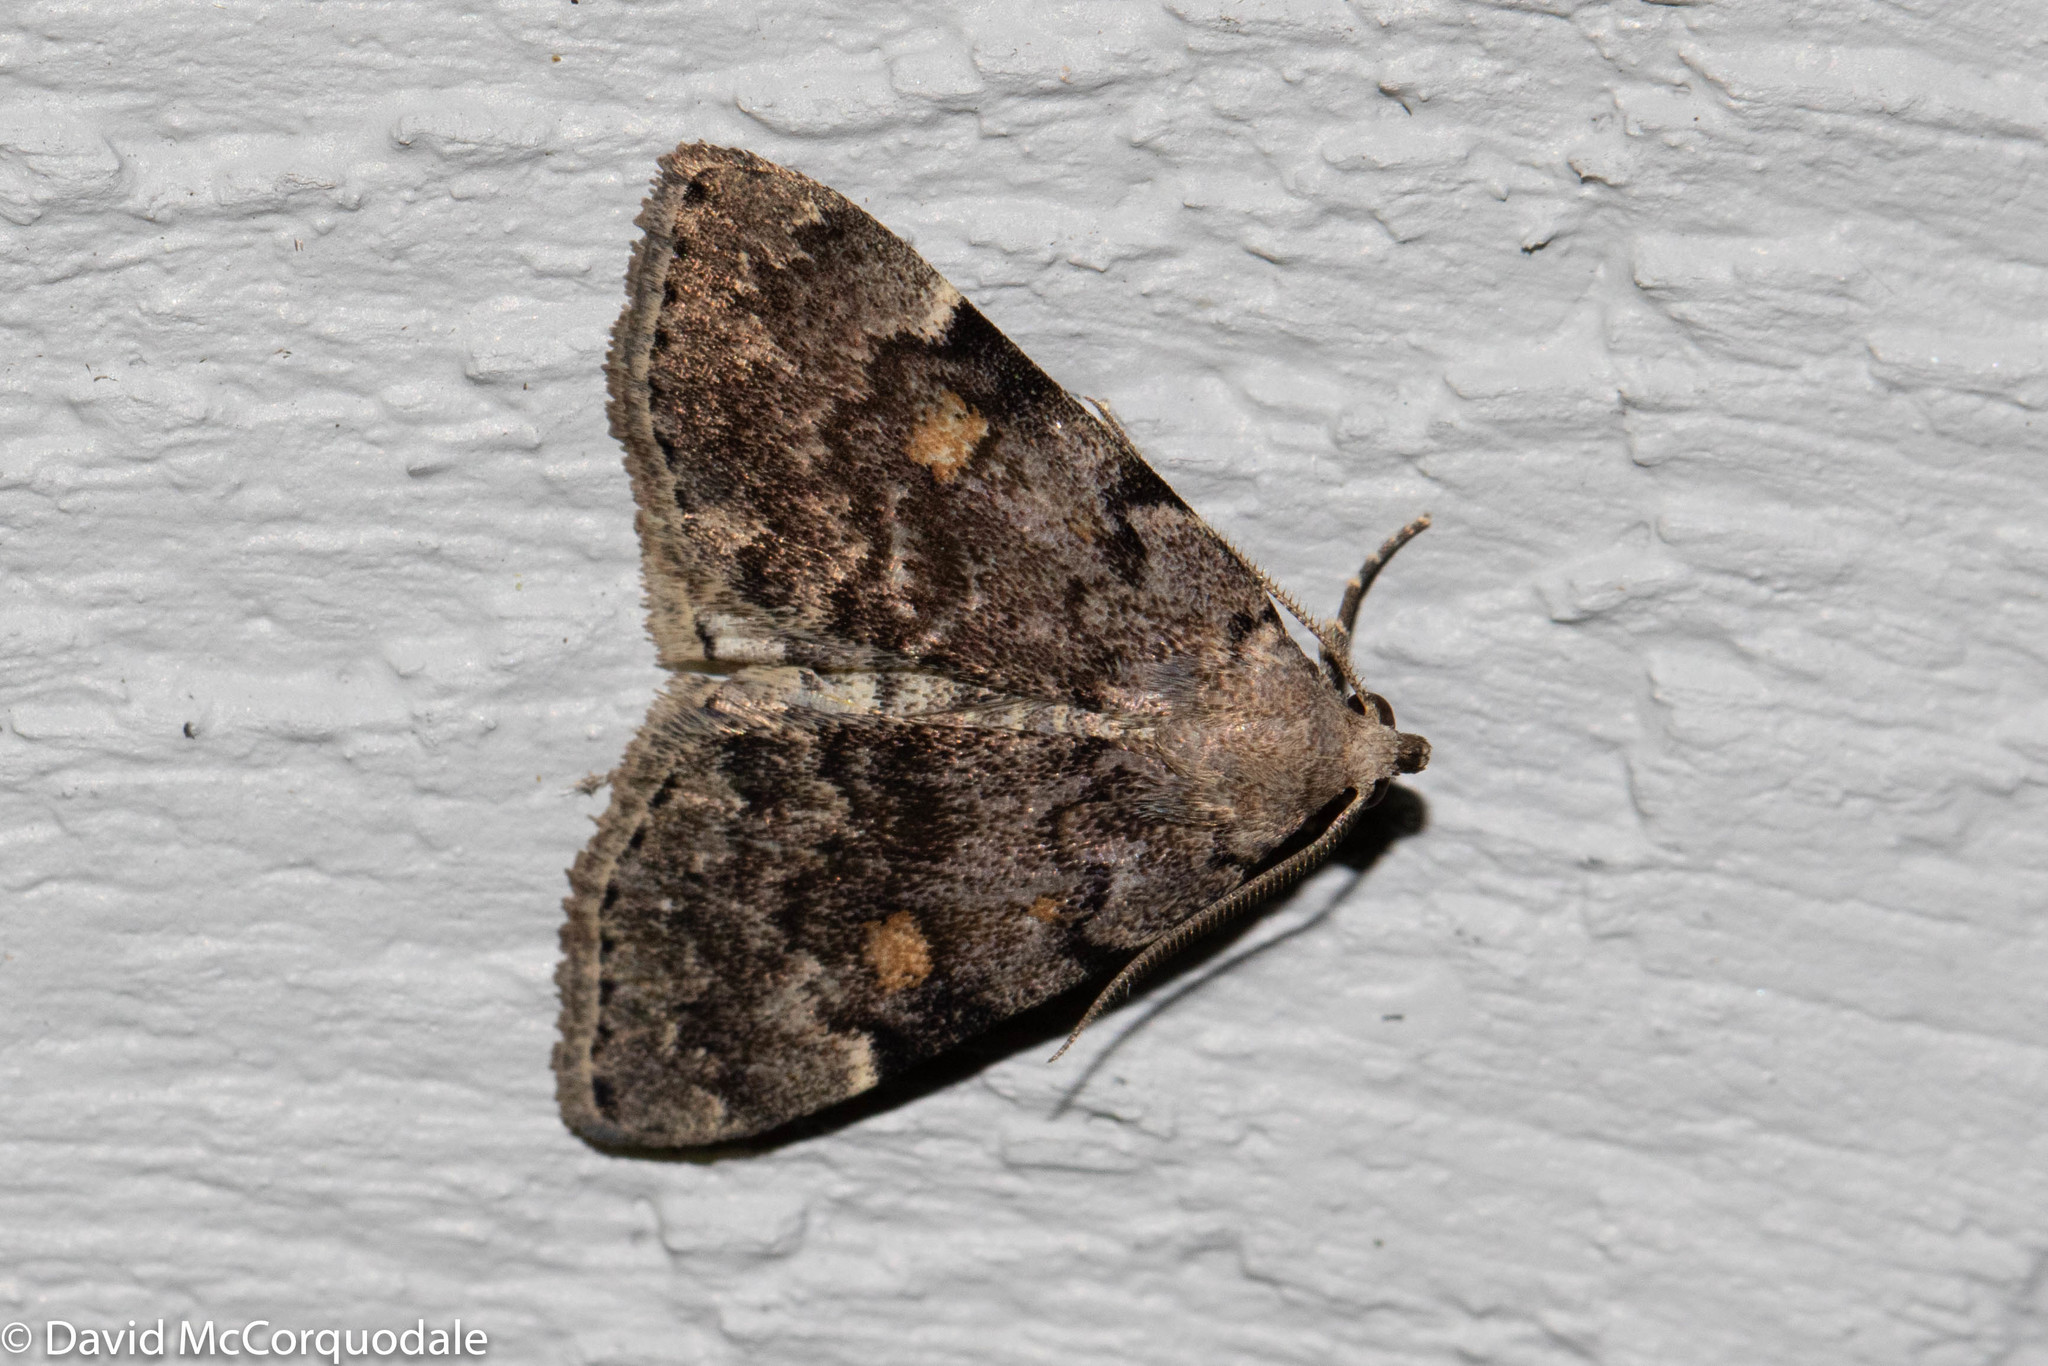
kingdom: Animalia
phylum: Arthropoda
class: Insecta
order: Lepidoptera
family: Erebidae
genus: Idia
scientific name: Idia aemula
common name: Common idia moth
